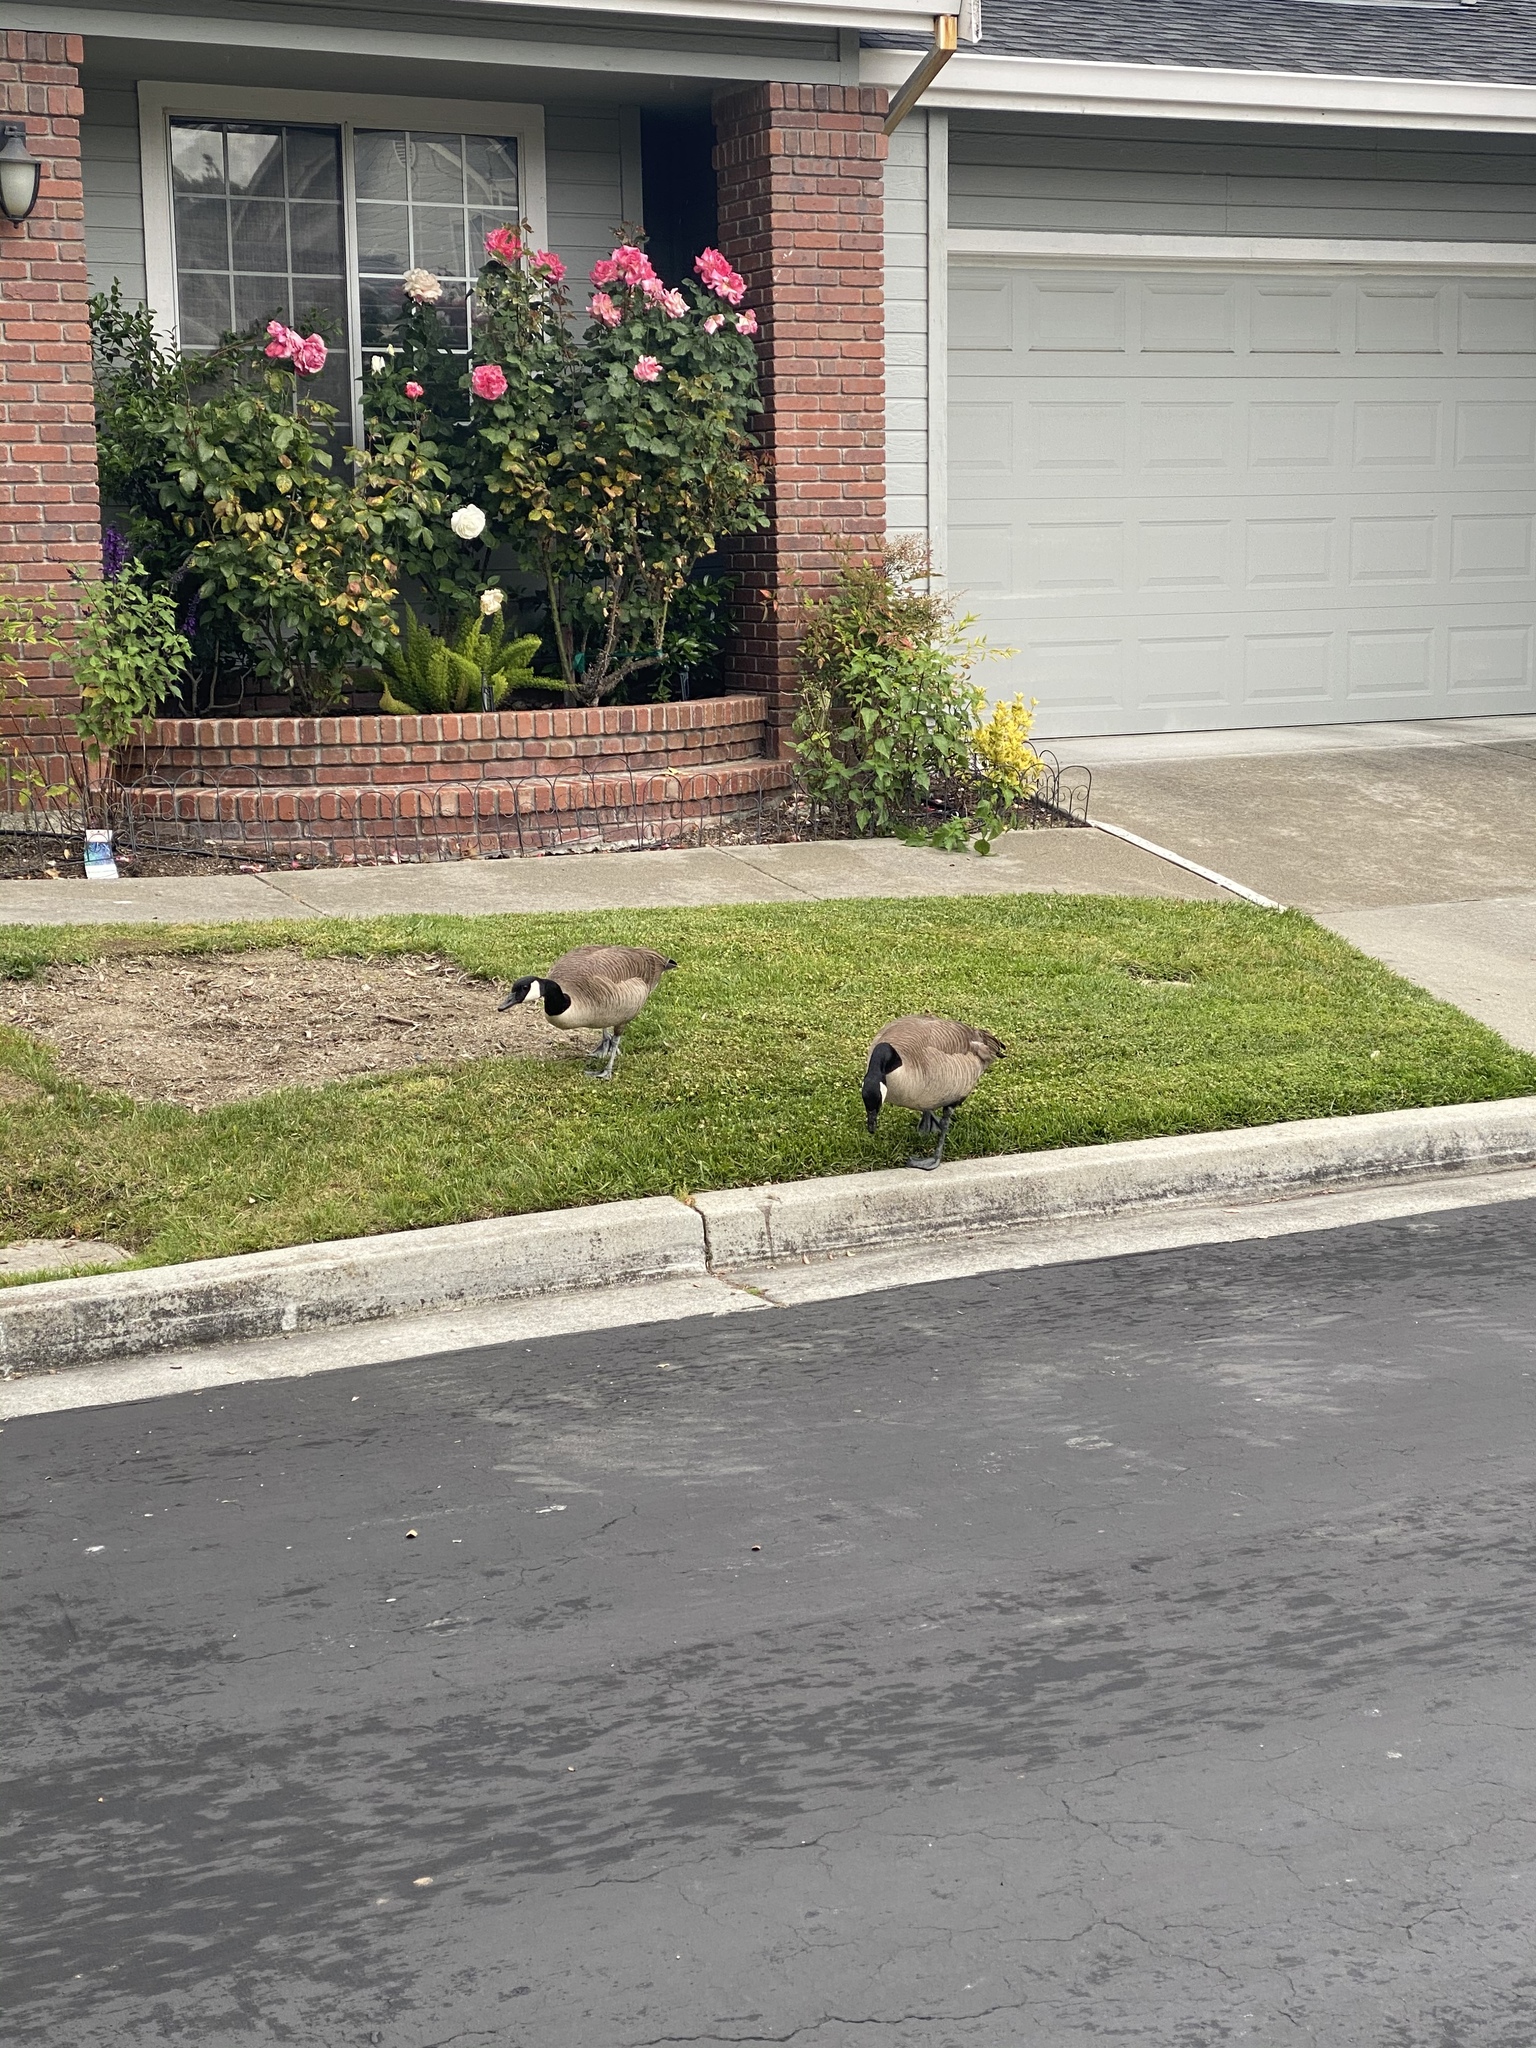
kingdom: Animalia
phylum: Chordata
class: Aves
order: Anseriformes
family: Anatidae
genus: Branta
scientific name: Branta canadensis
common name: Canada goose
